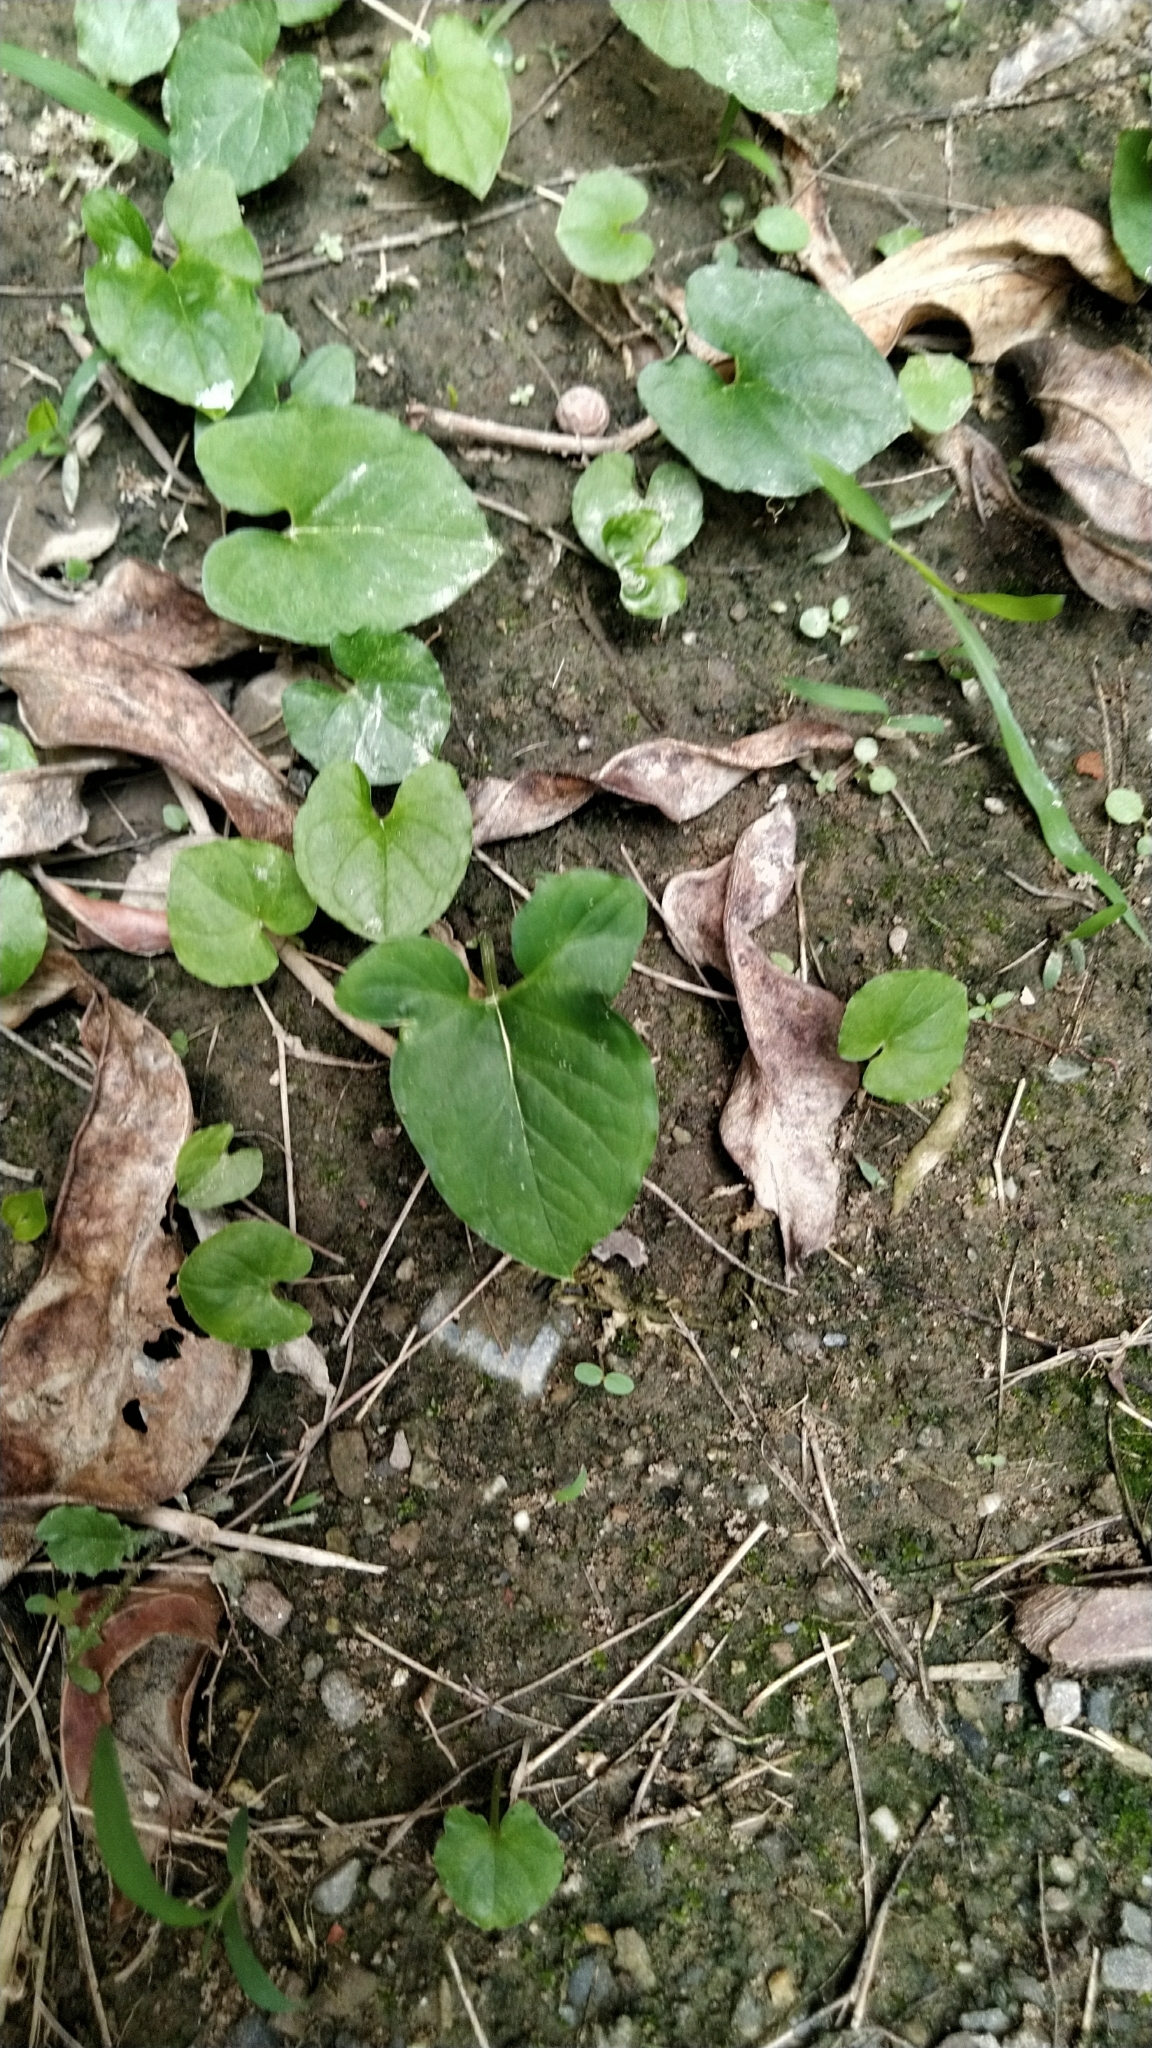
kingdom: Plantae
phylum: Tracheophyta
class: Liliopsida
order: Alismatales
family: Araceae
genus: Typhonium
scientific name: Typhonium blumei
